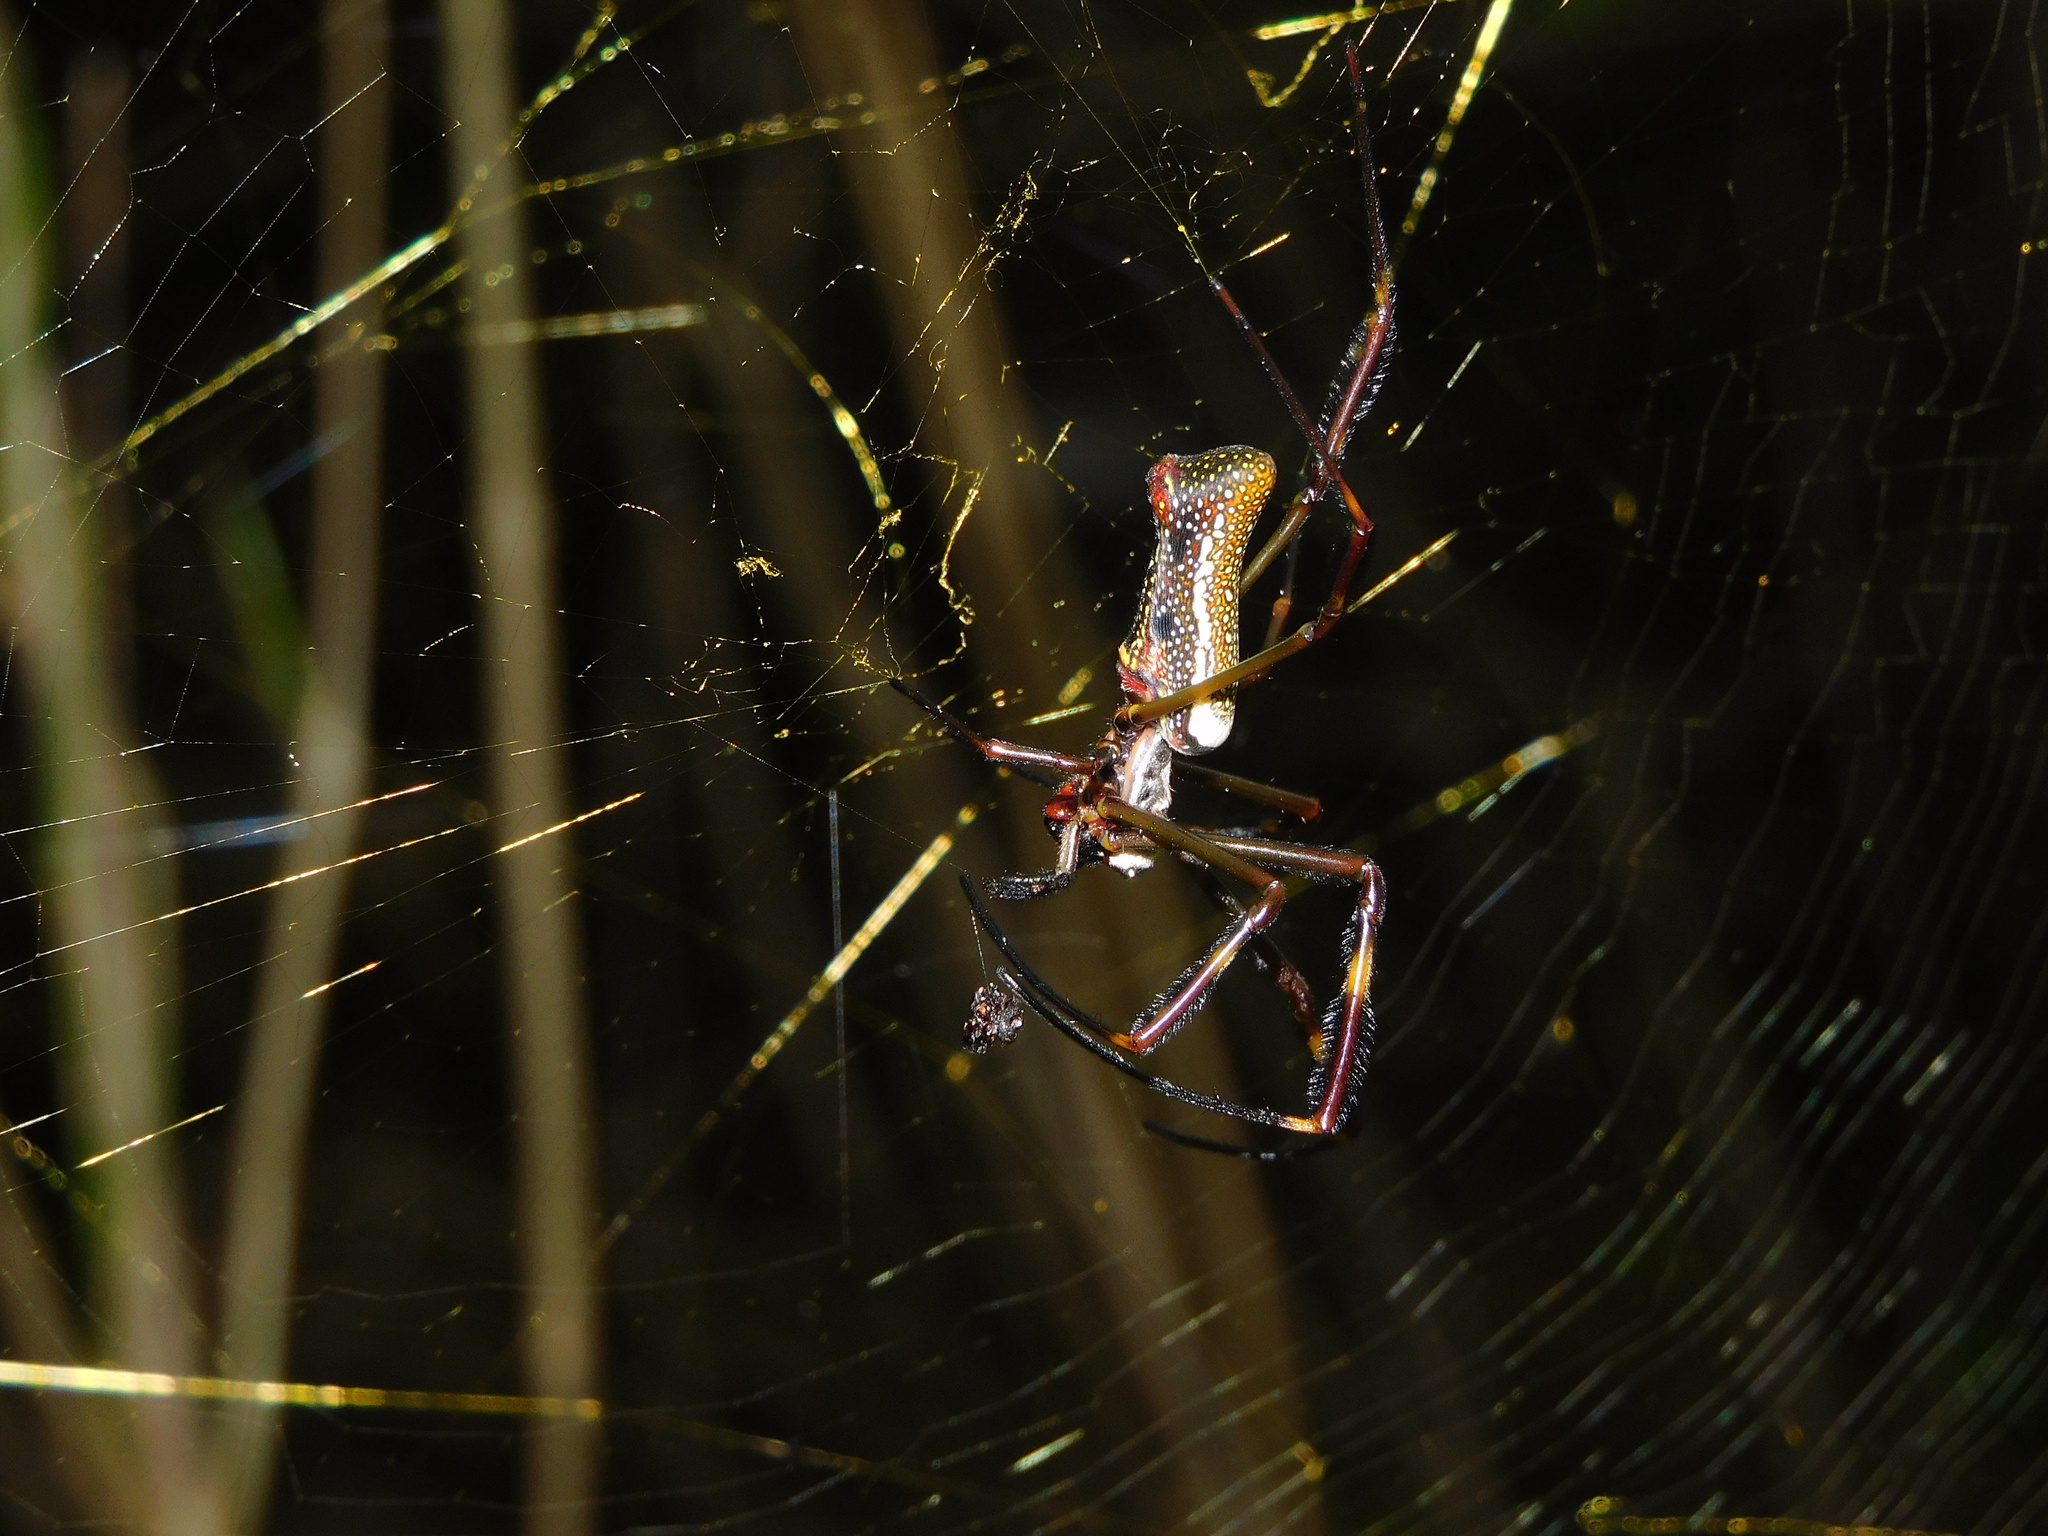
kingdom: Animalia
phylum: Arthropoda
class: Arachnida
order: Araneae
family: Araneidae
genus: Trichonephila
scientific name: Trichonephila clavipes
